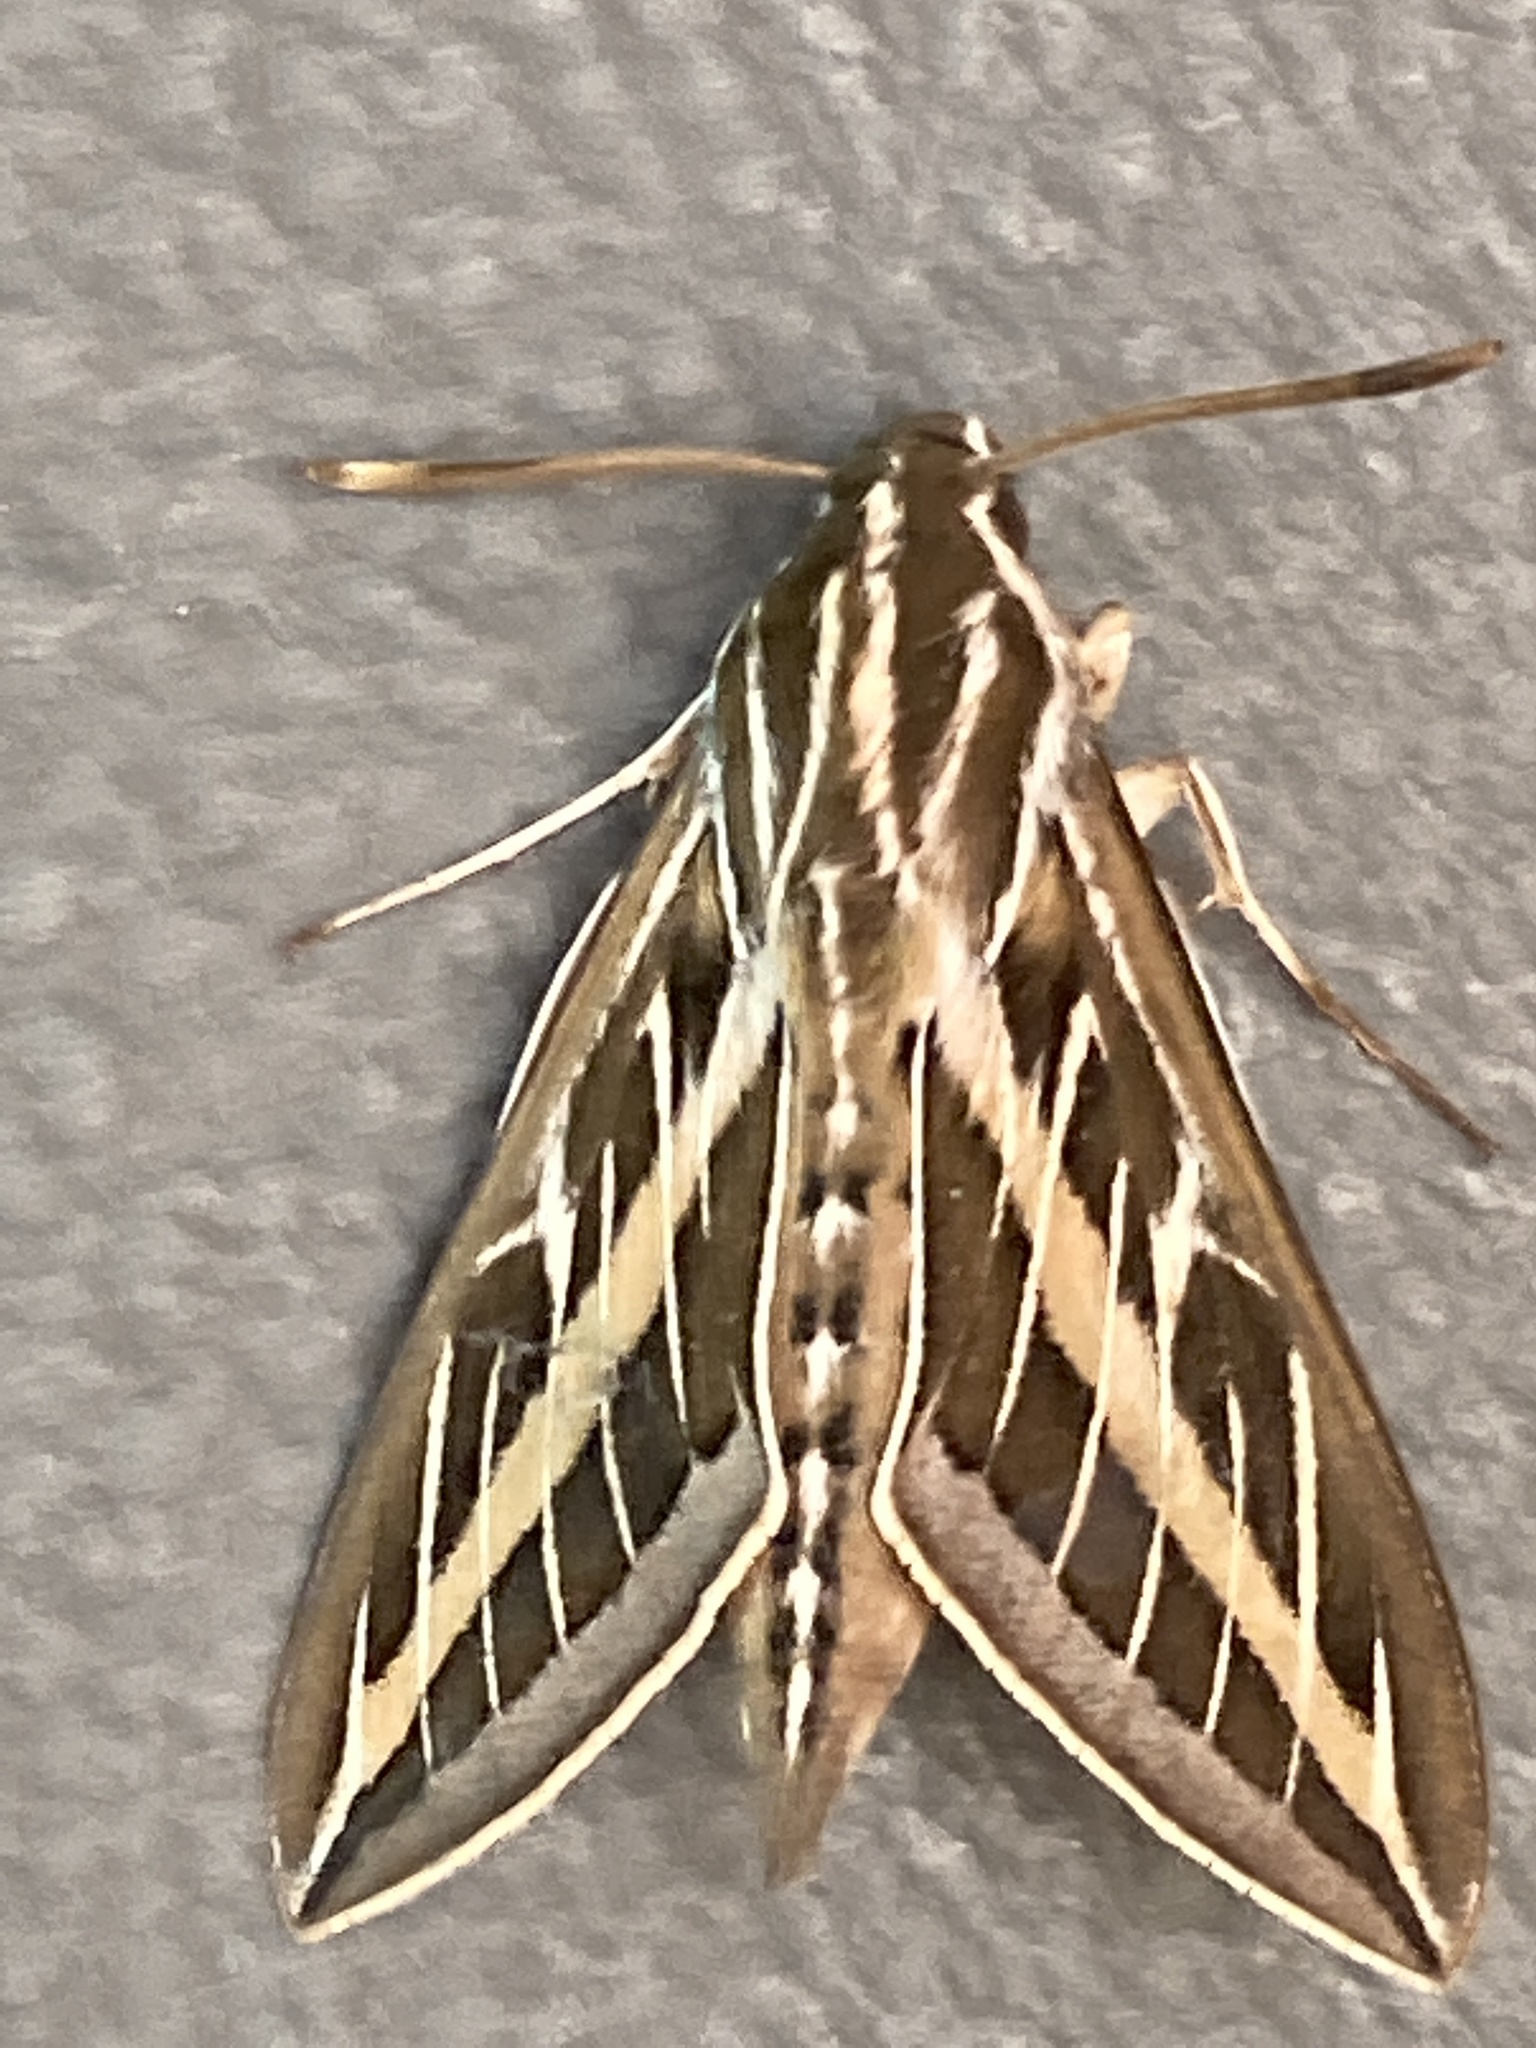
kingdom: Animalia
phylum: Arthropoda
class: Insecta
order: Lepidoptera
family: Sphingidae
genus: Hyles
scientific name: Hyles lineata
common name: White-lined sphinx
